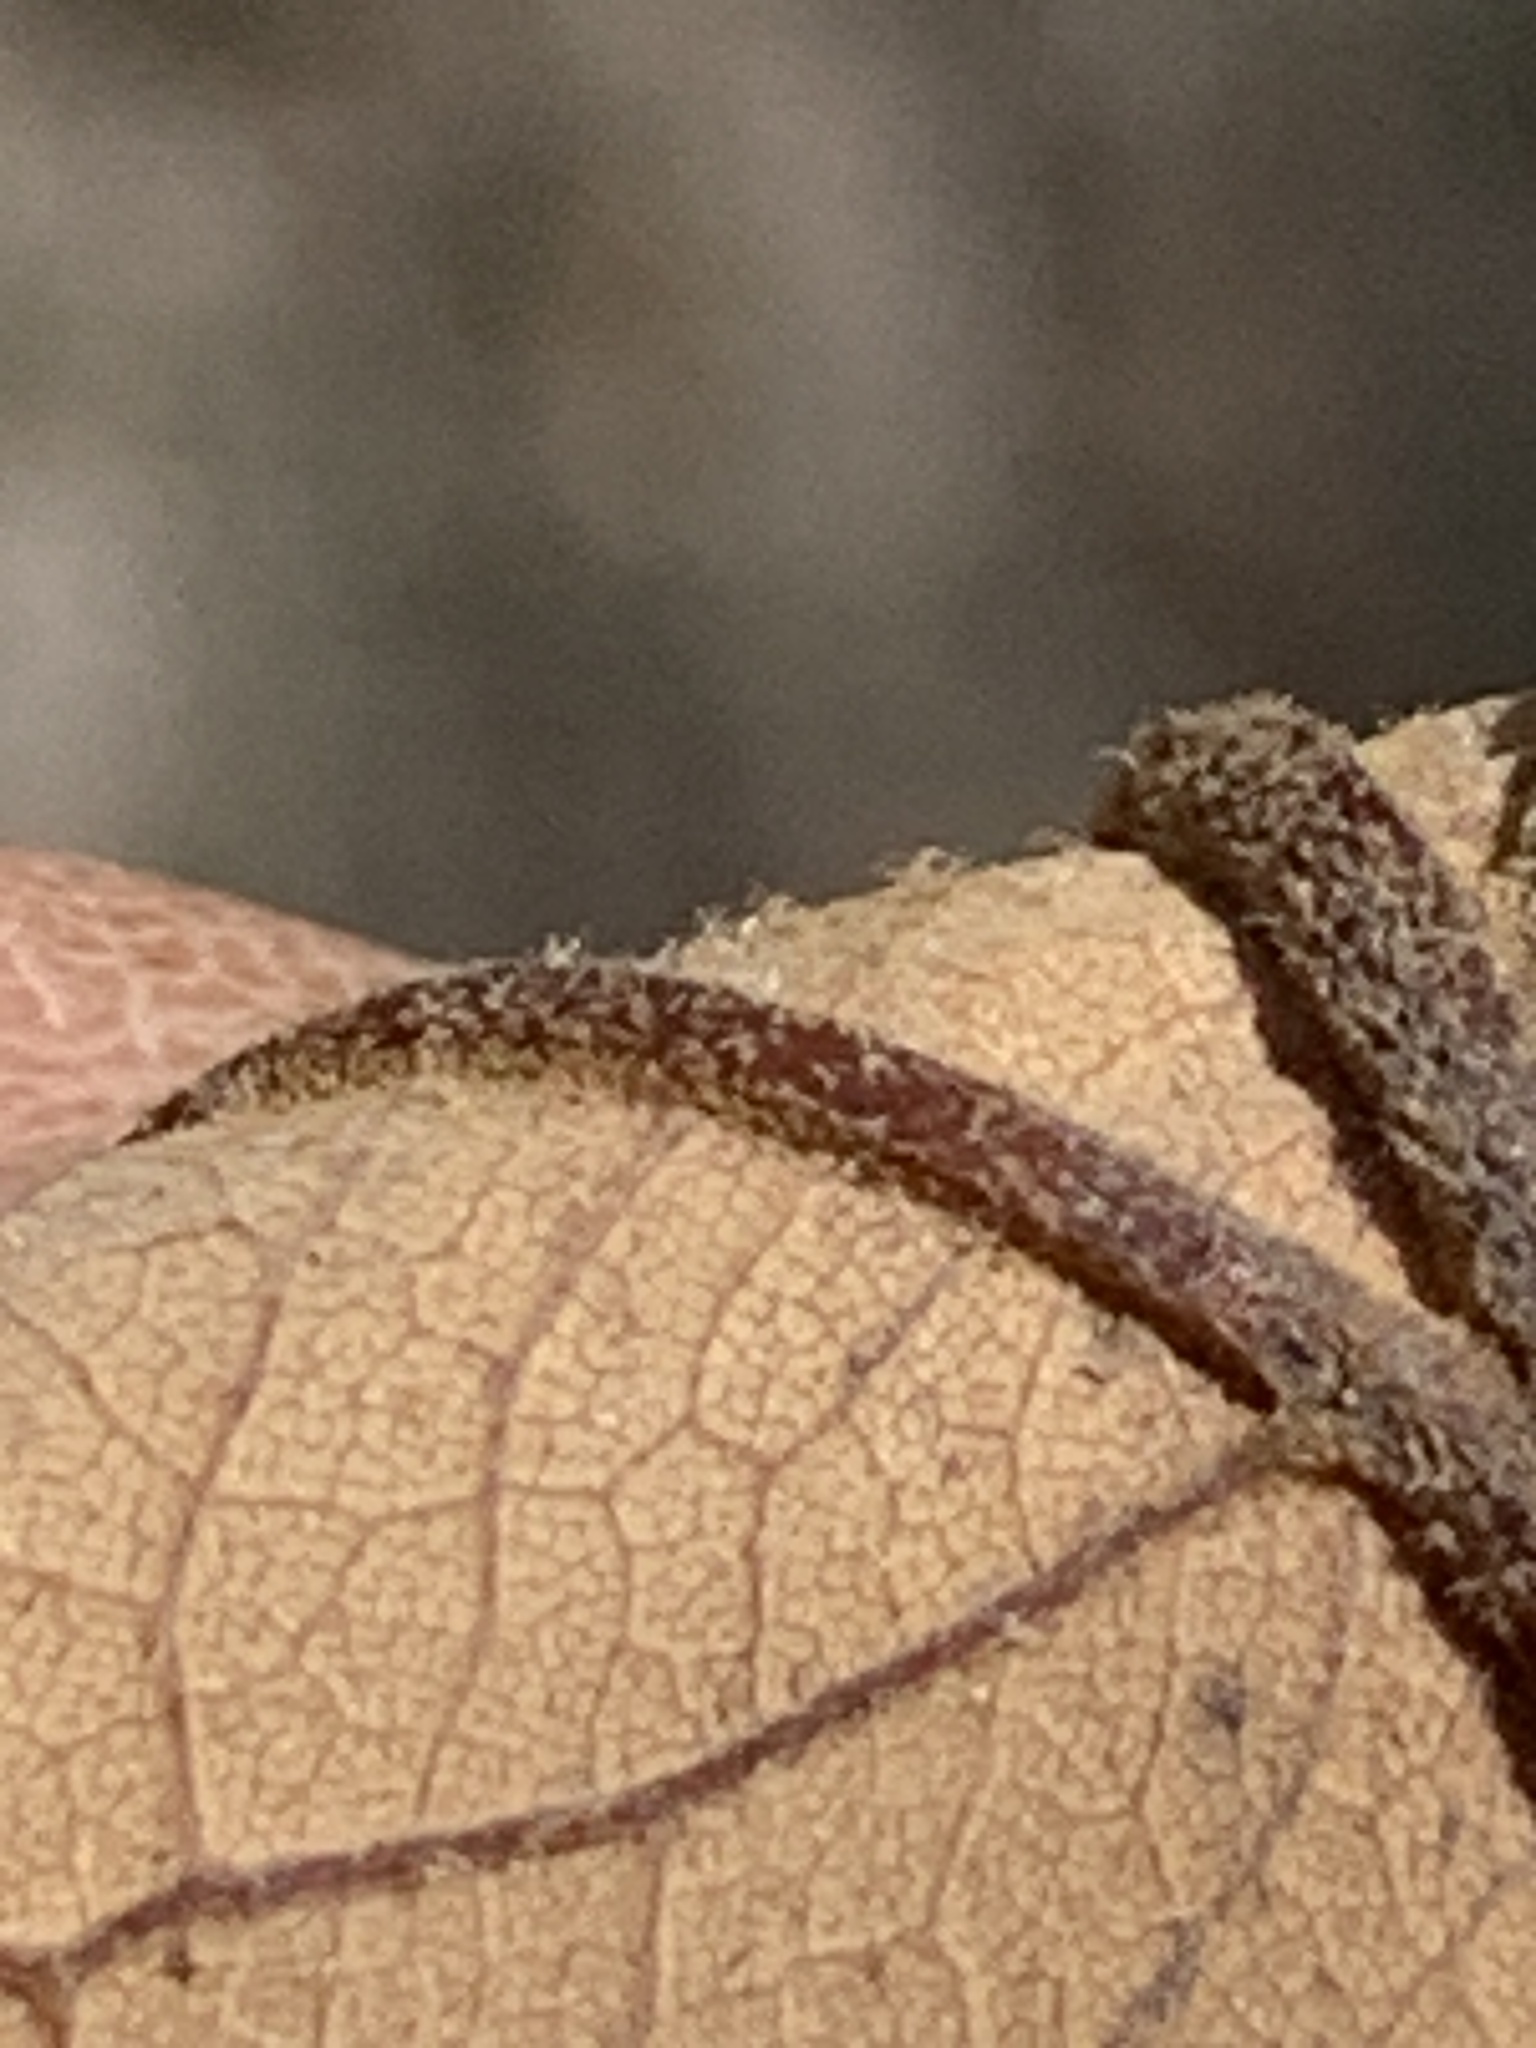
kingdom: Plantae
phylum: Tracheophyta
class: Magnoliopsida
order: Fagales
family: Fagaceae
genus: Quercus
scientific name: Quercus stellata
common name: Post oak
